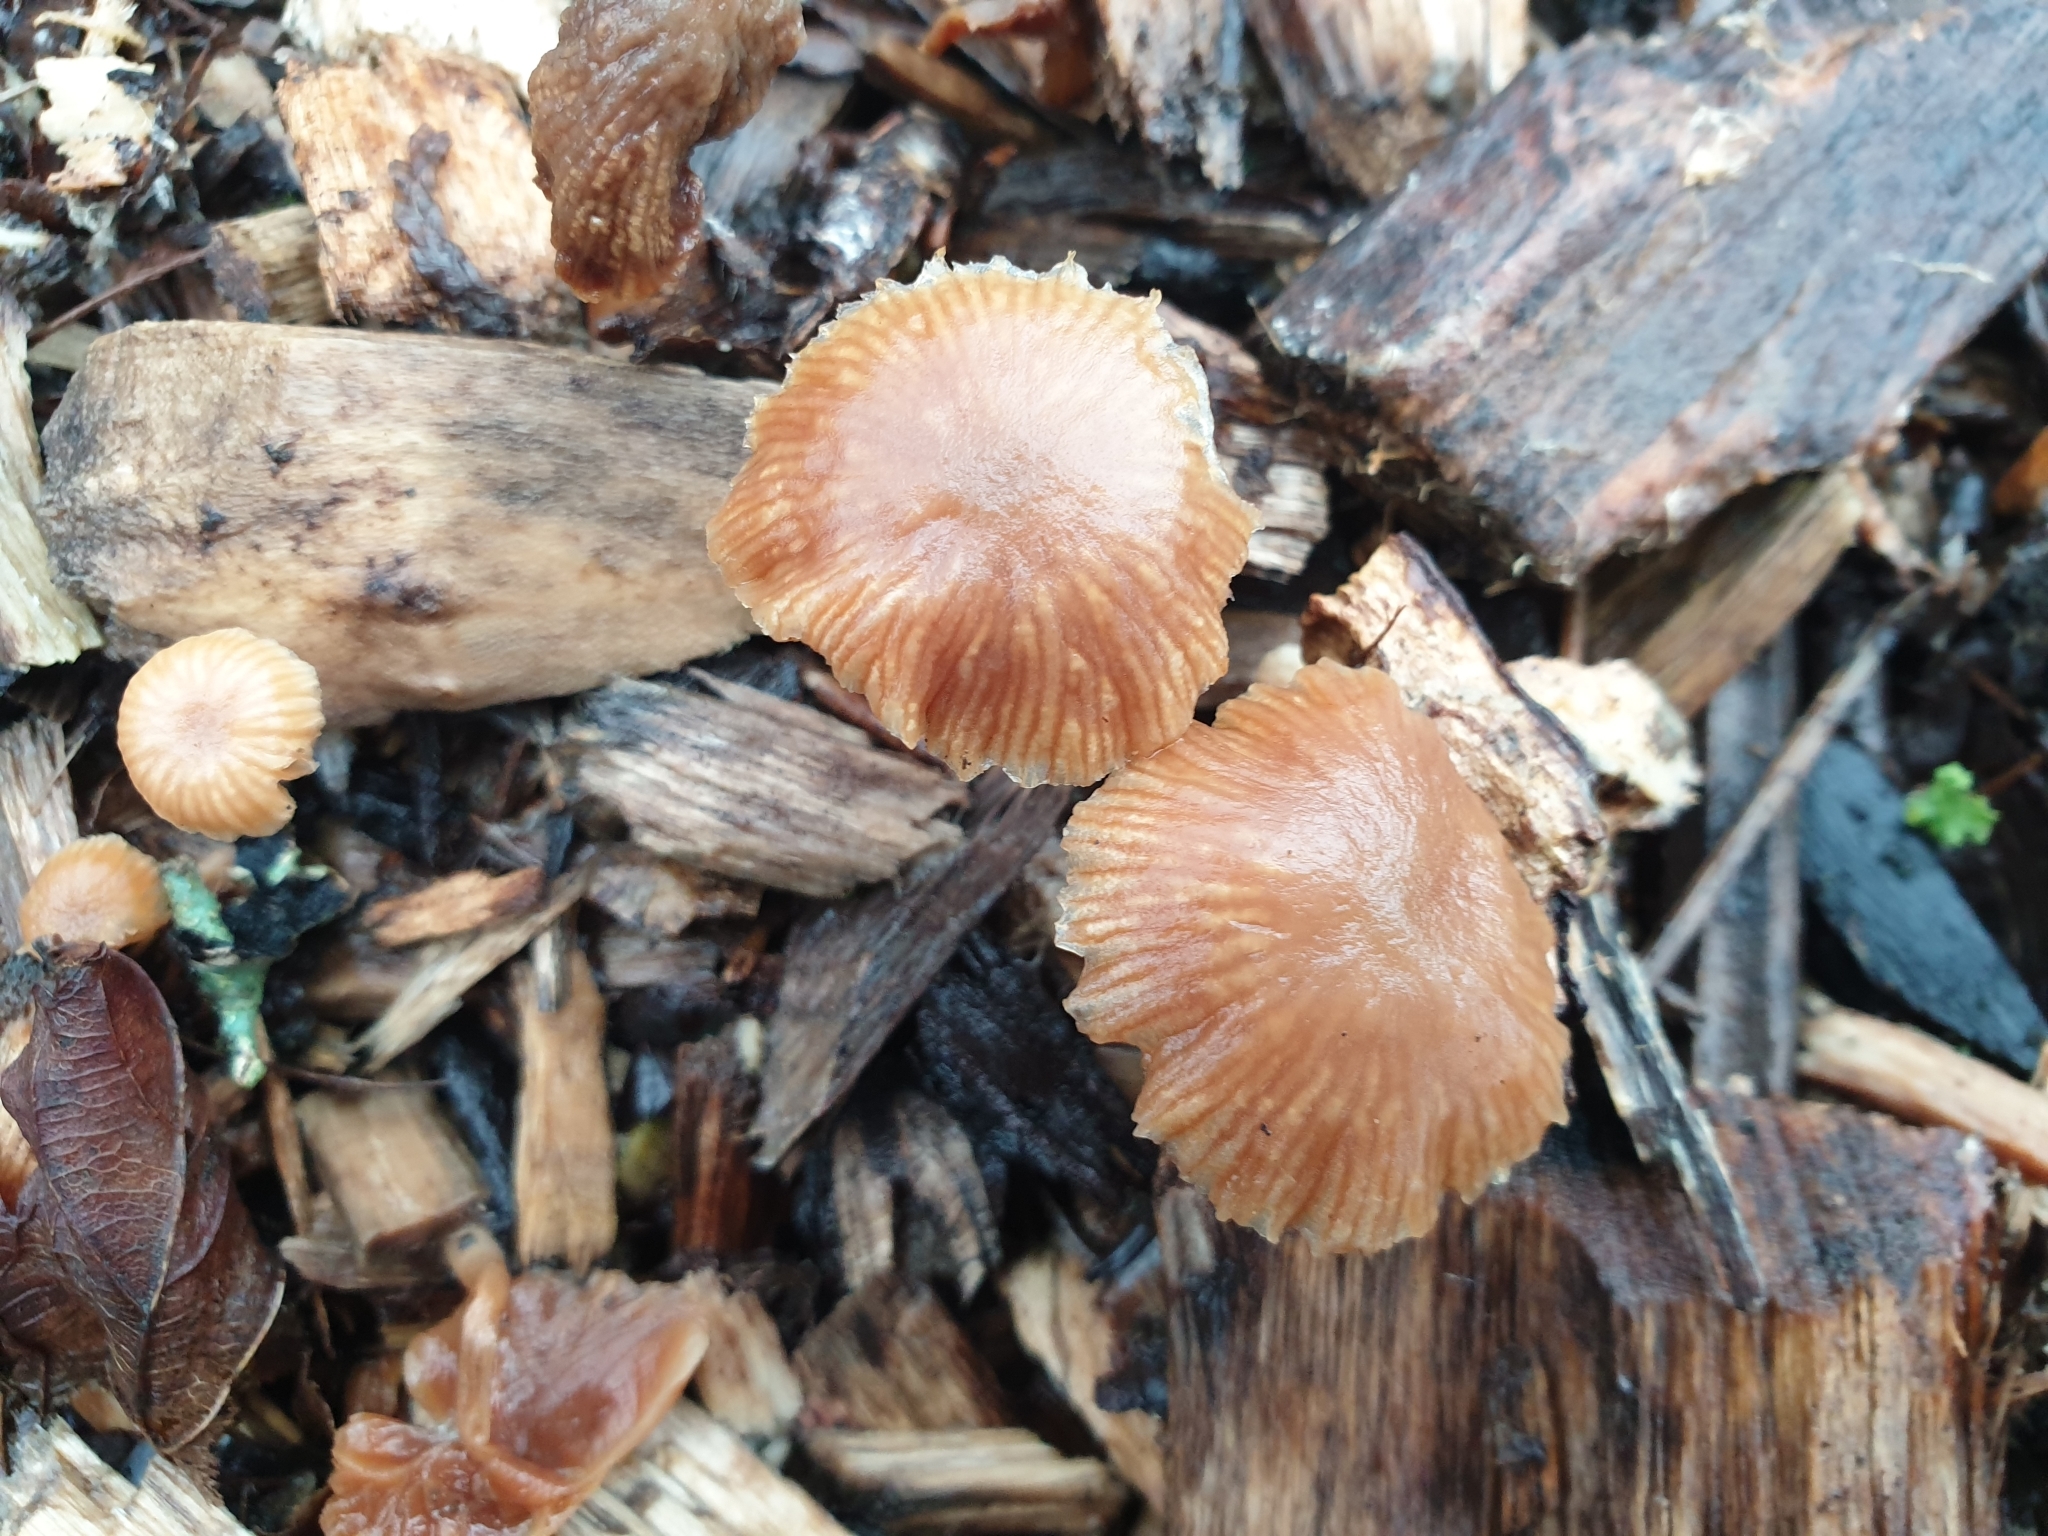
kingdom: Fungi
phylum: Basidiomycota
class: Agaricomycetes
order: Agaricales
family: Tubariaceae
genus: Tubaria
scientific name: Tubaria furfuracea
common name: Scurfy twiglet
